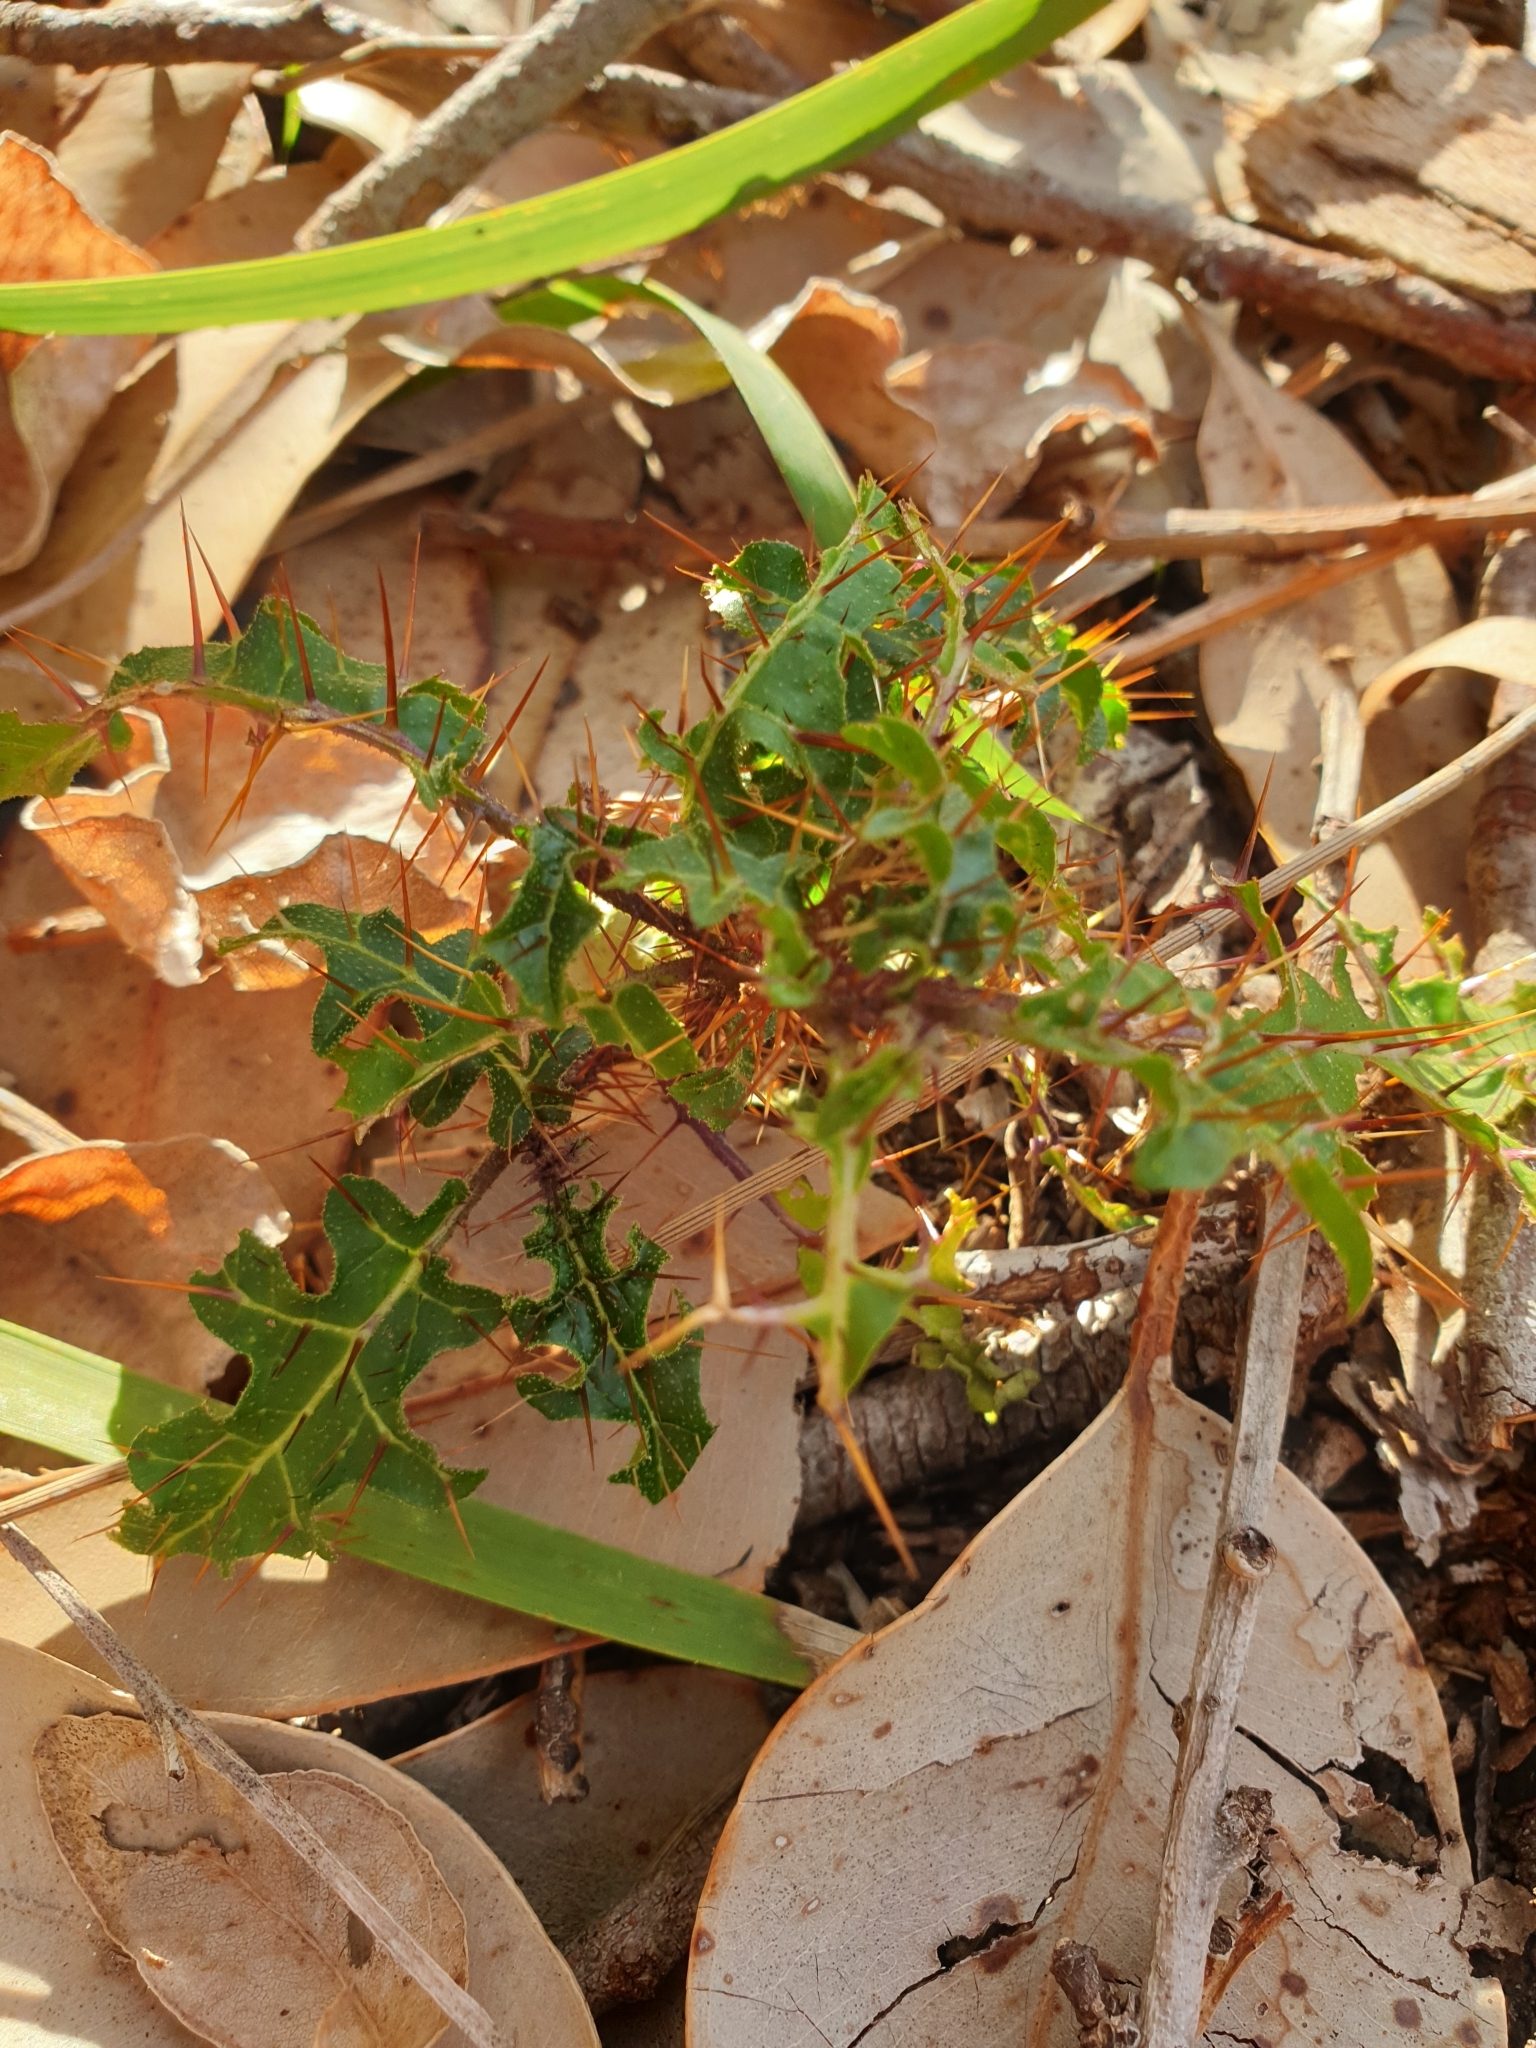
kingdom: Plantae
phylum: Tracheophyta
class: Magnoliopsida
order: Solanales
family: Solanaceae
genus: Solanum
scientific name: Solanum prinophyllum
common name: Forest nightshade
